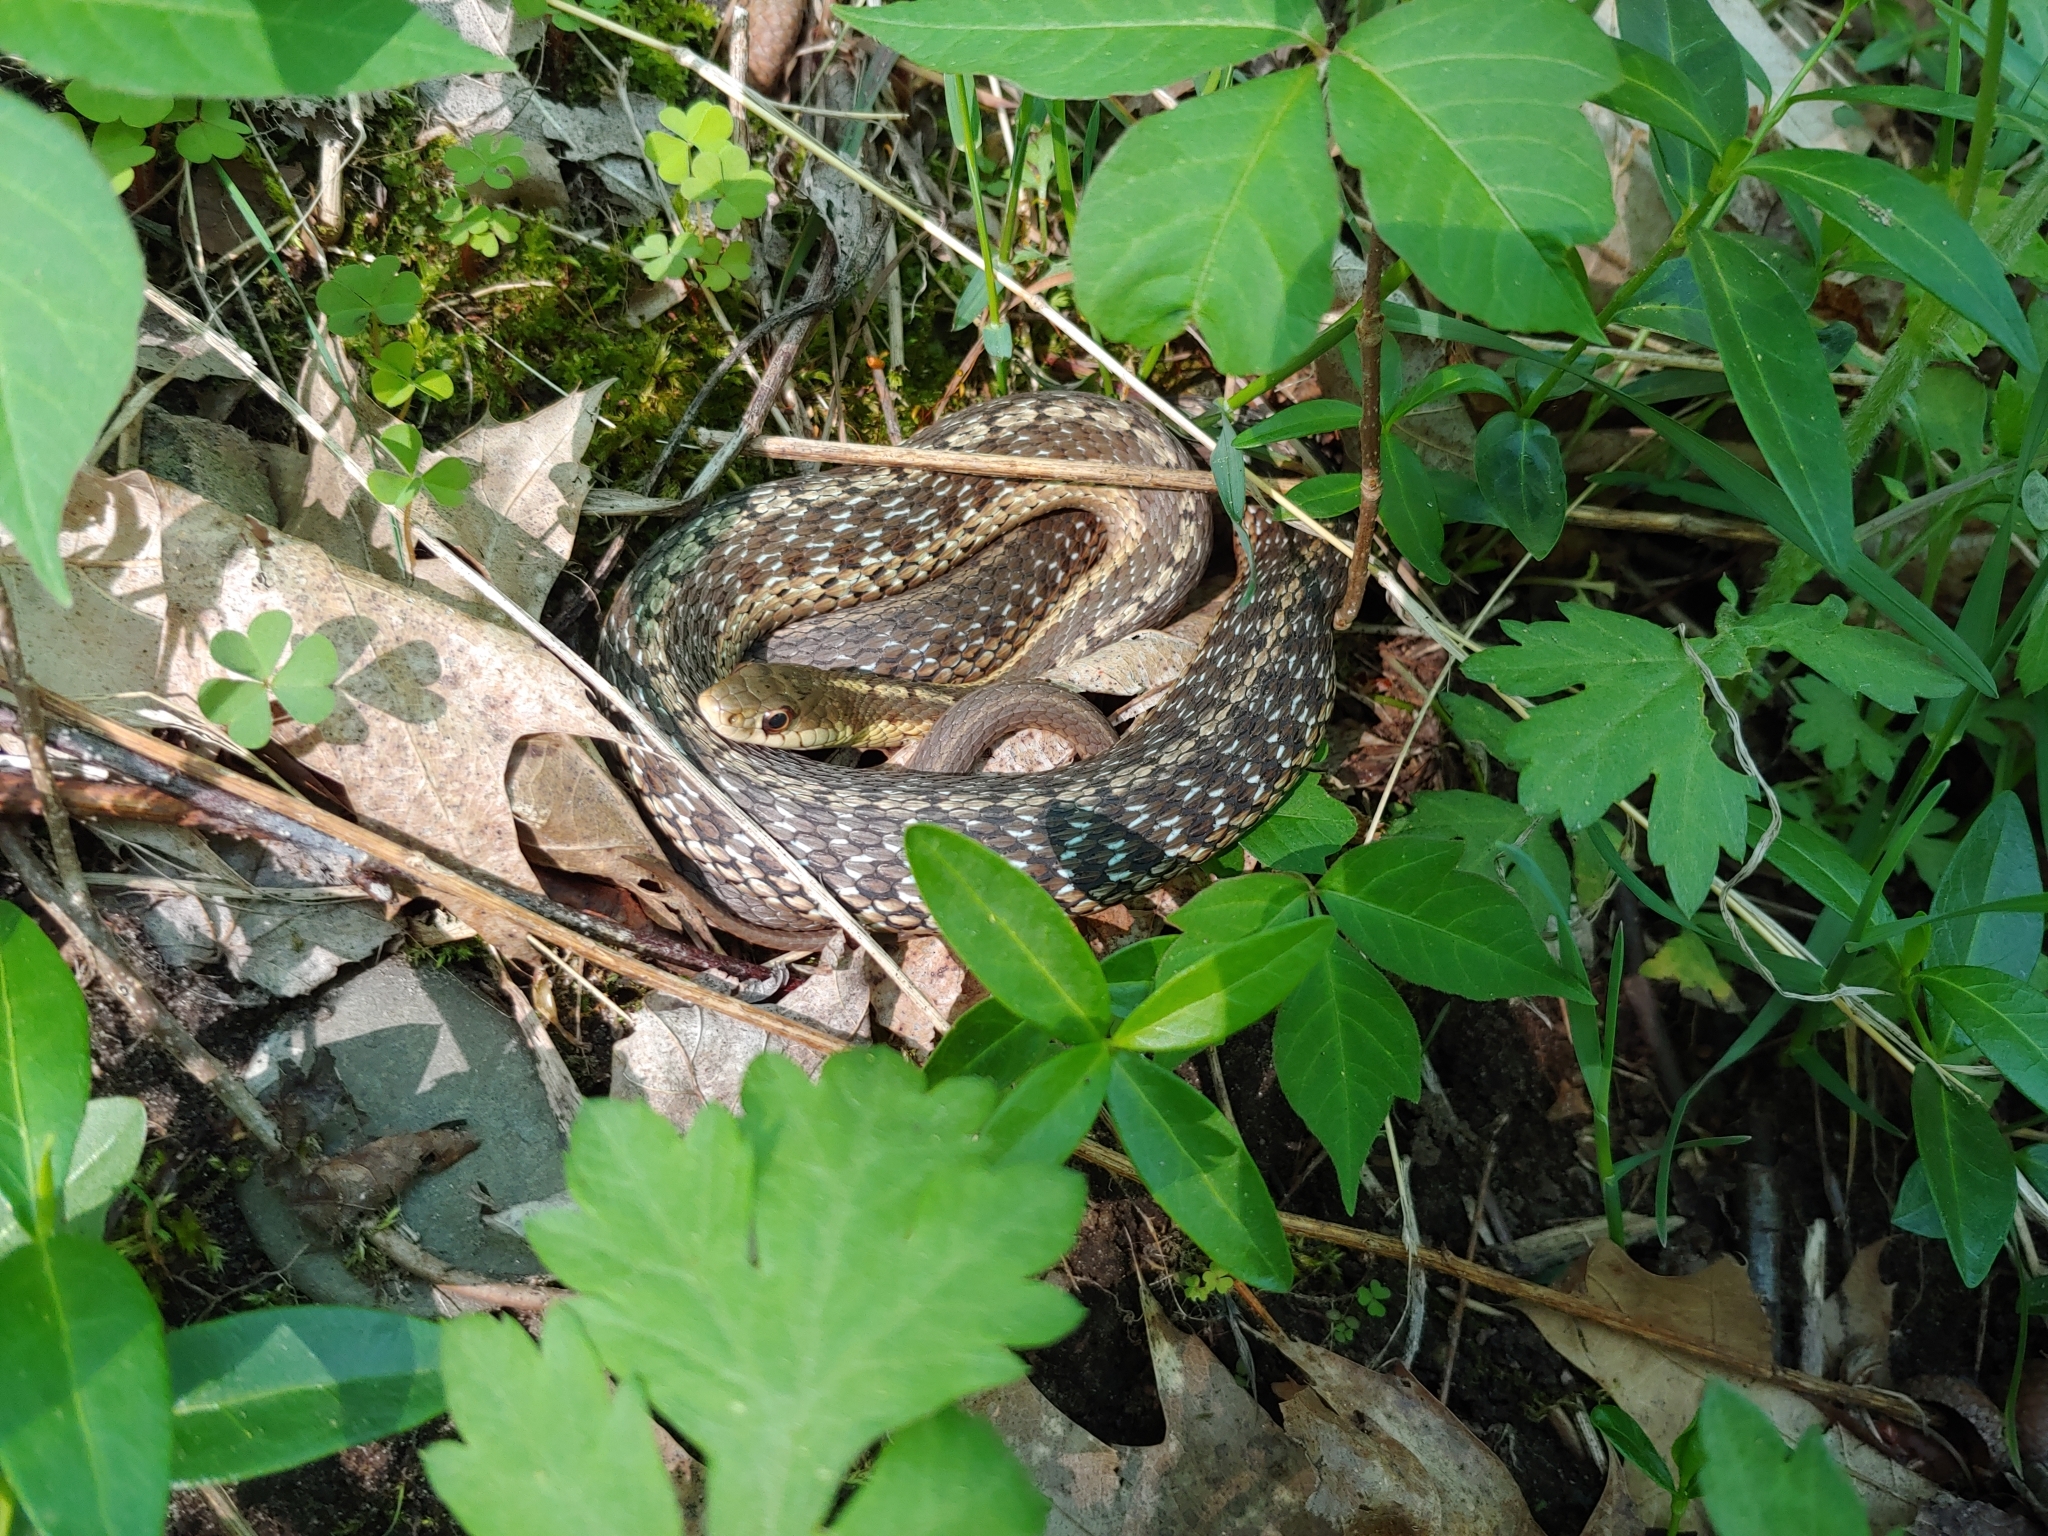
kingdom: Animalia
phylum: Chordata
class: Squamata
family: Colubridae
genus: Thamnophis
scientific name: Thamnophis sirtalis
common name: Common garter snake
